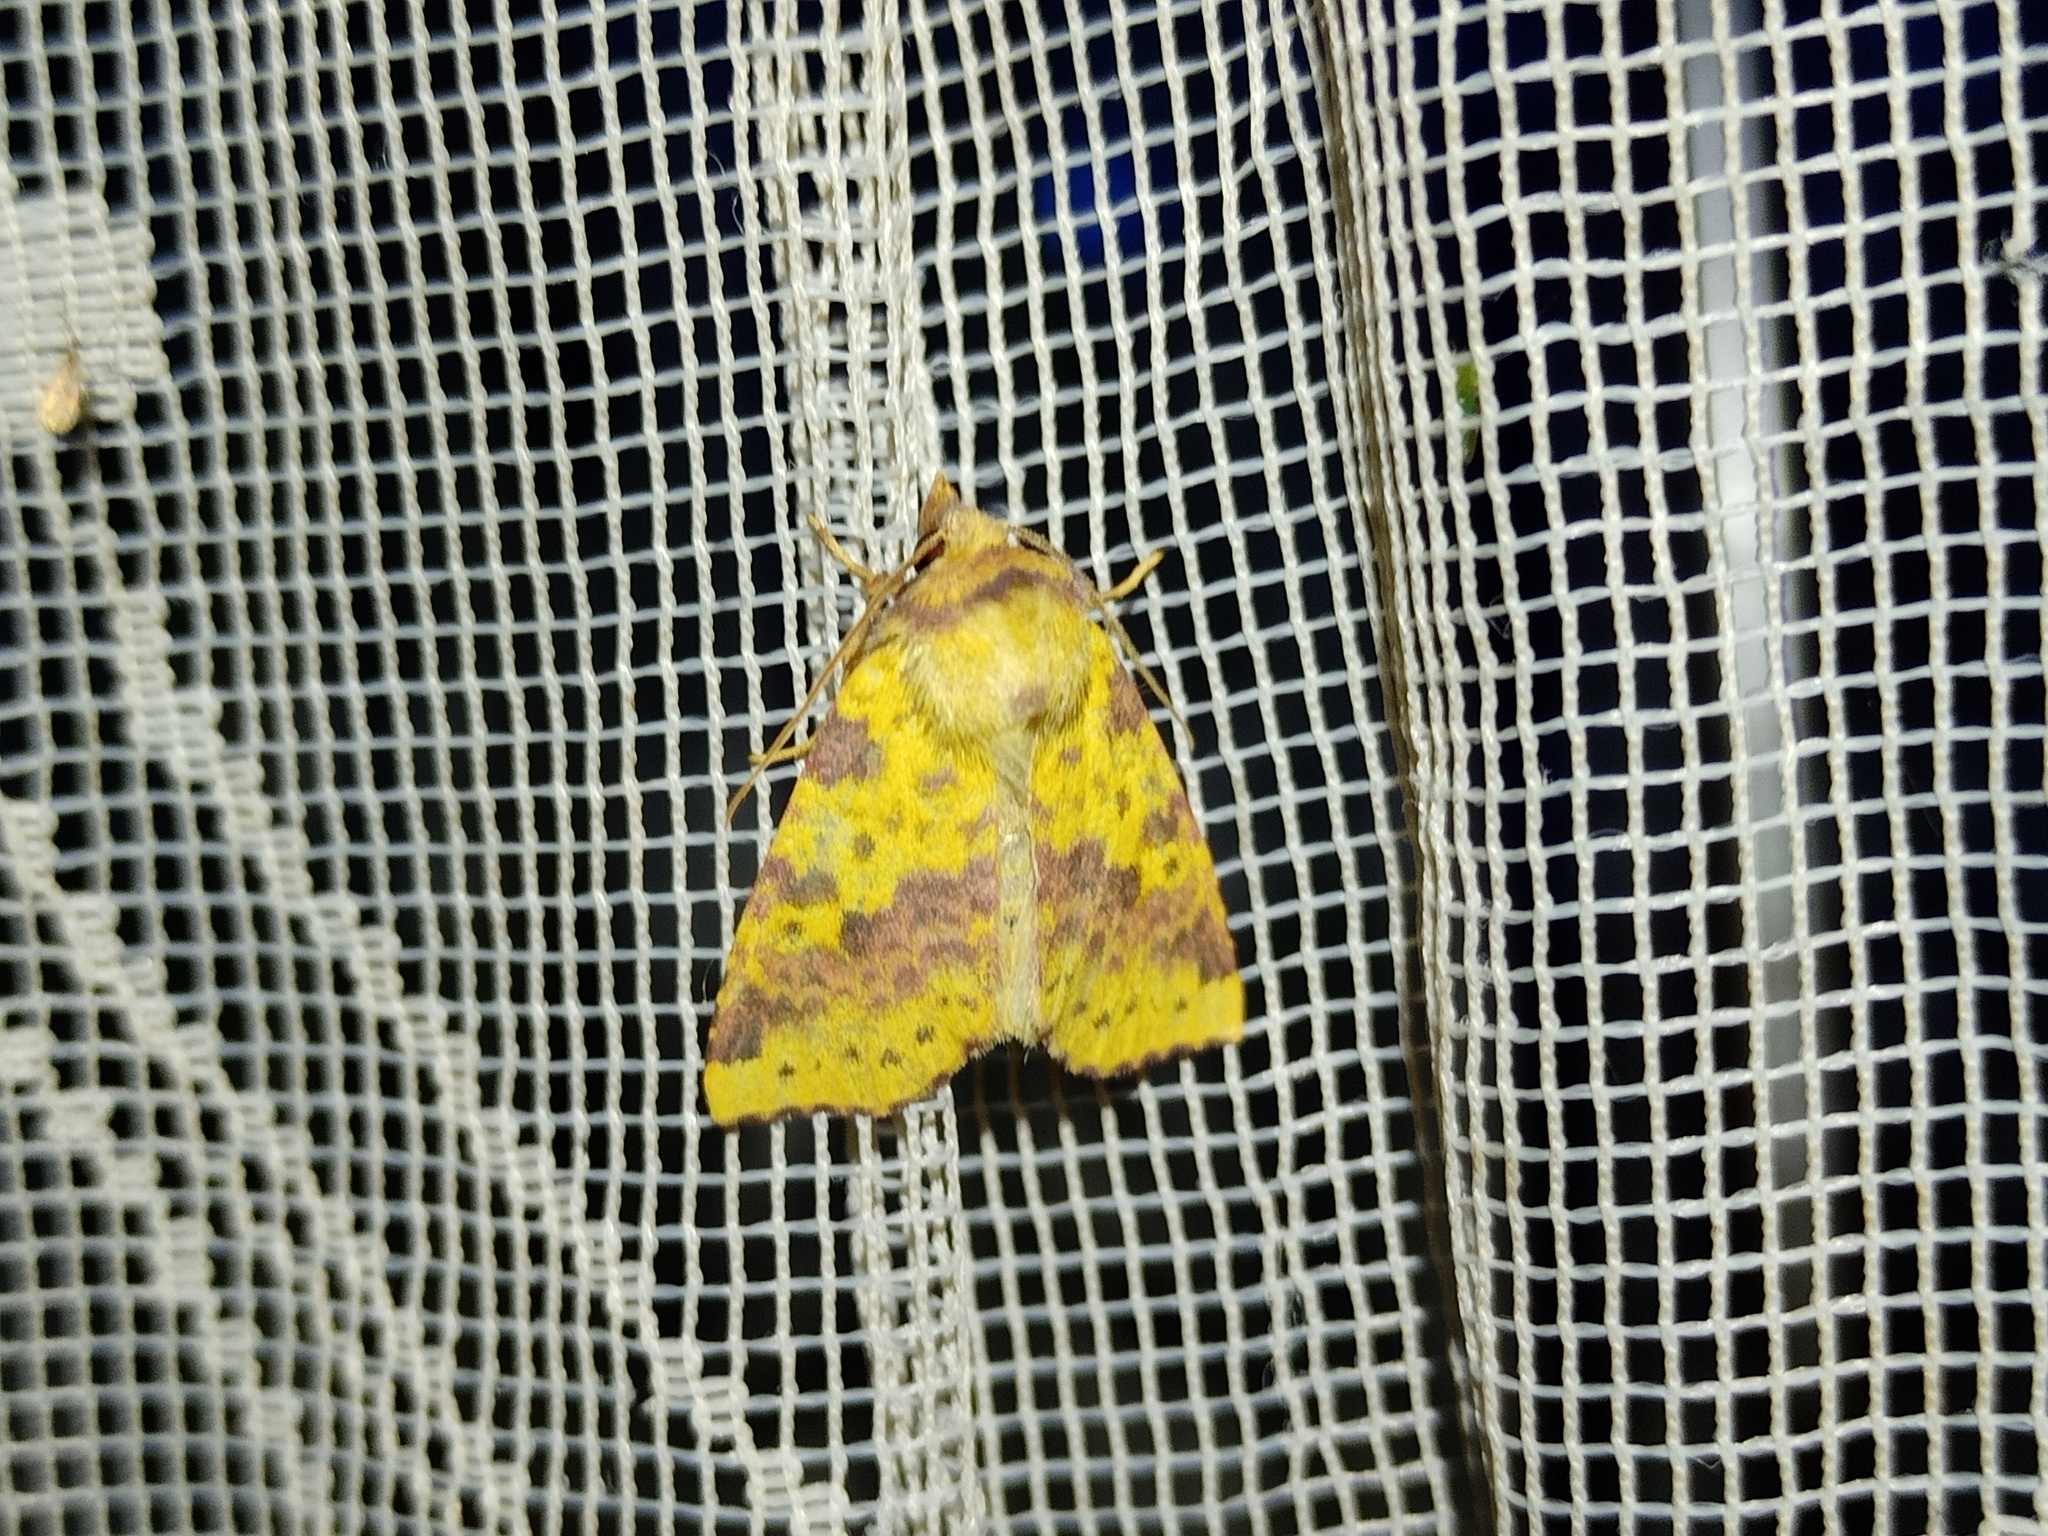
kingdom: Animalia
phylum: Arthropoda
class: Insecta
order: Lepidoptera
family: Noctuidae
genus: Xanthia
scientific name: Xanthia togata
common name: Pink-barred sallow
